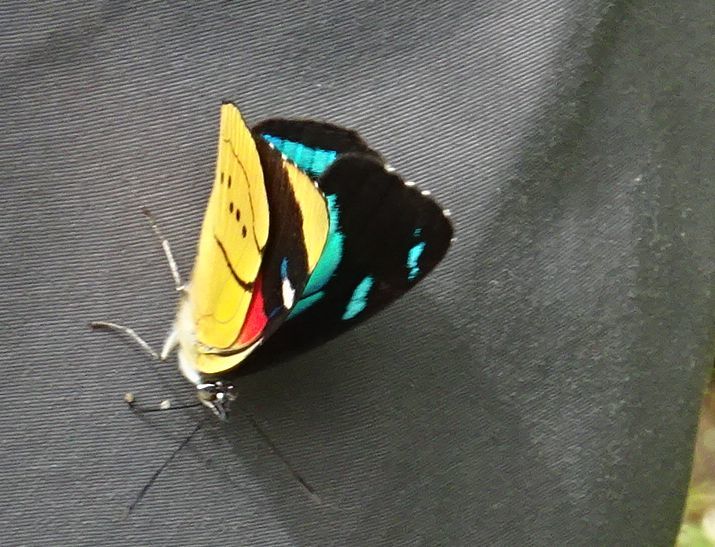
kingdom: Animalia
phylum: Arthropoda
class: Insecta
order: Lepidoptera
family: Nymphalidae
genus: Perisama
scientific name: Perisama humboldtii
